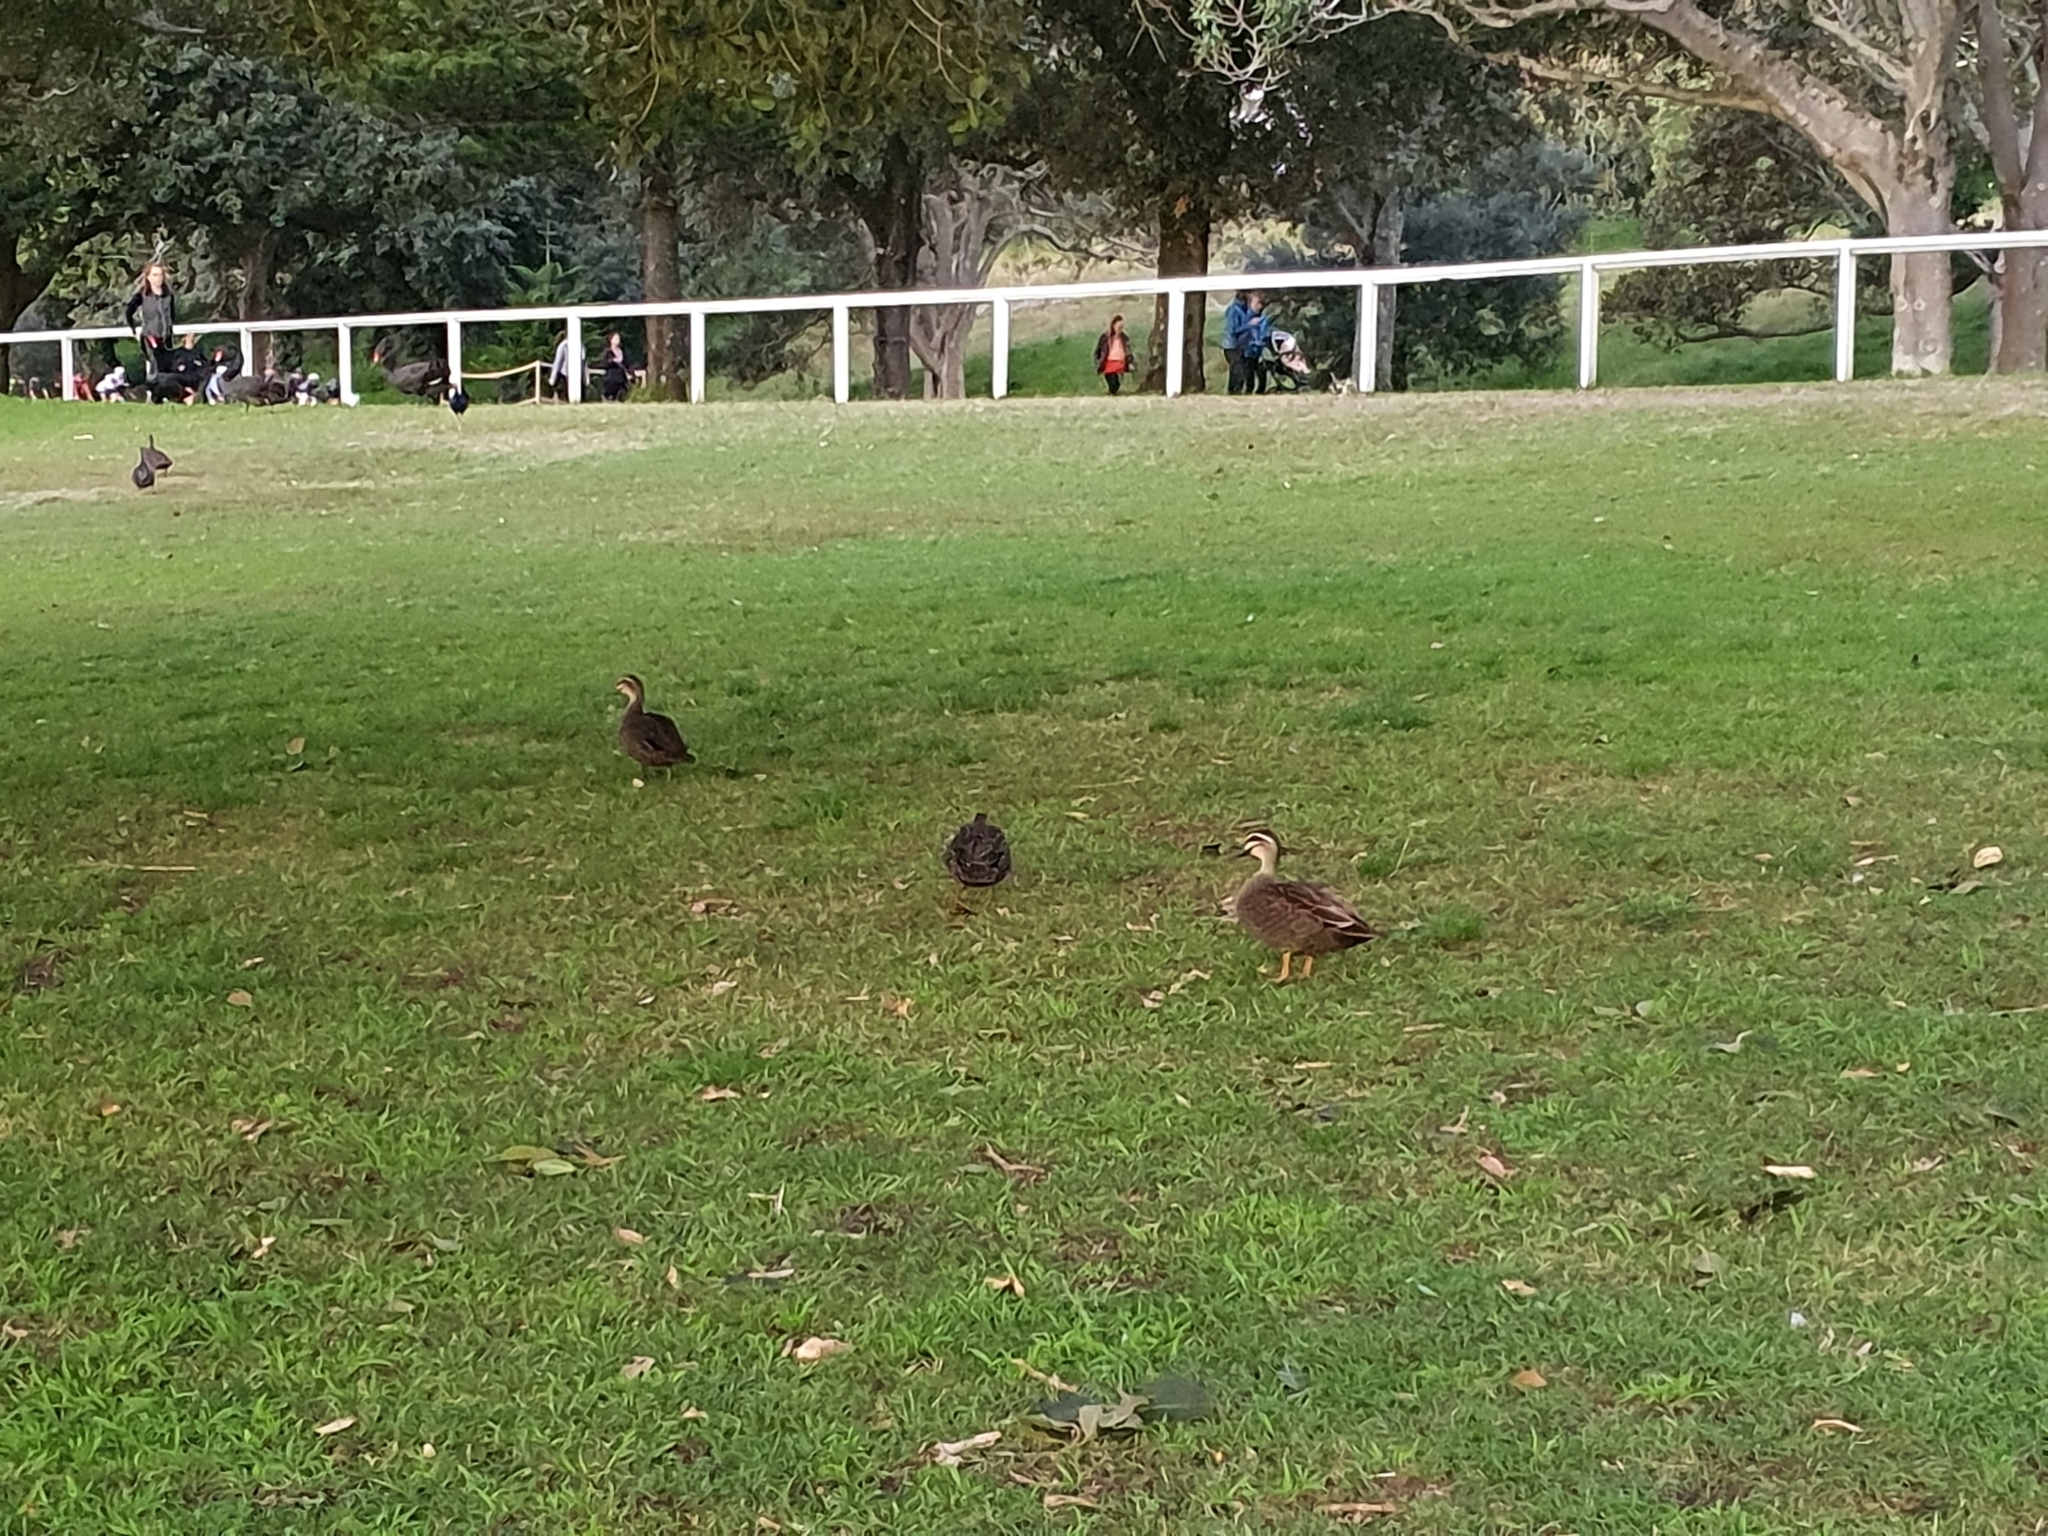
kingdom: Animalia
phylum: Chordata
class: Aves
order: Anseriformes
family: Anatidae
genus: Anas
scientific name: Anas superciliosa
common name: Pacific black duck
